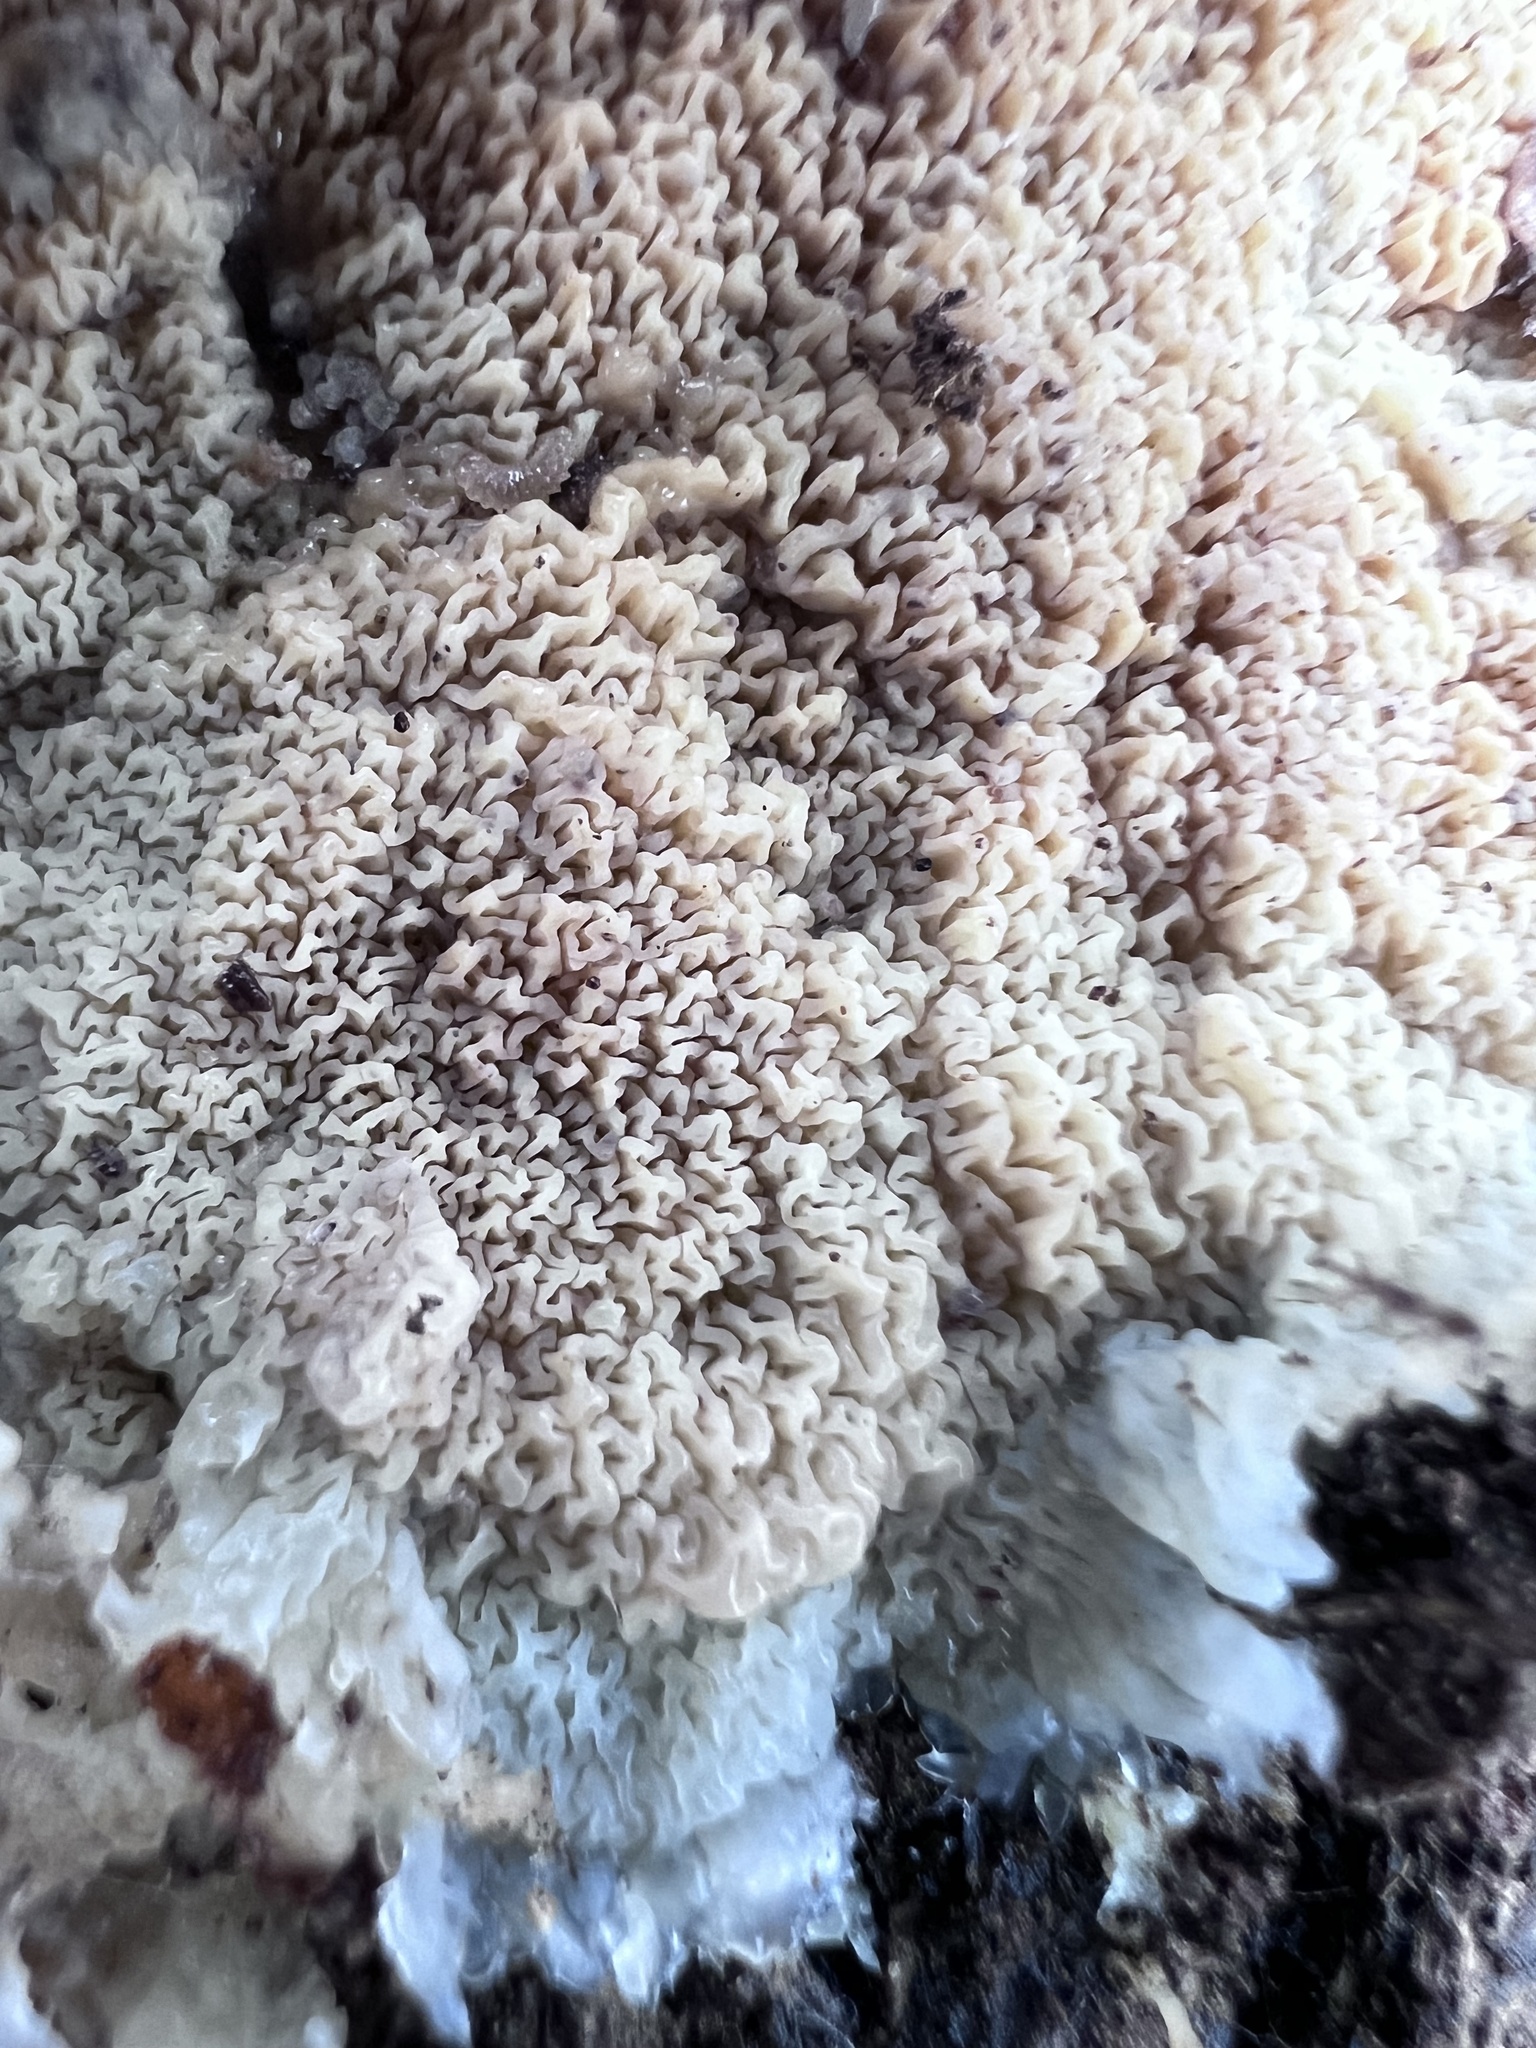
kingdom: Fungi
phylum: Basidiomycota
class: Agaricomycetes
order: Polyporales
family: Meruliaceae
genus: Phlebia
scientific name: Phlebia tremellosa
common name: Jelly rot
